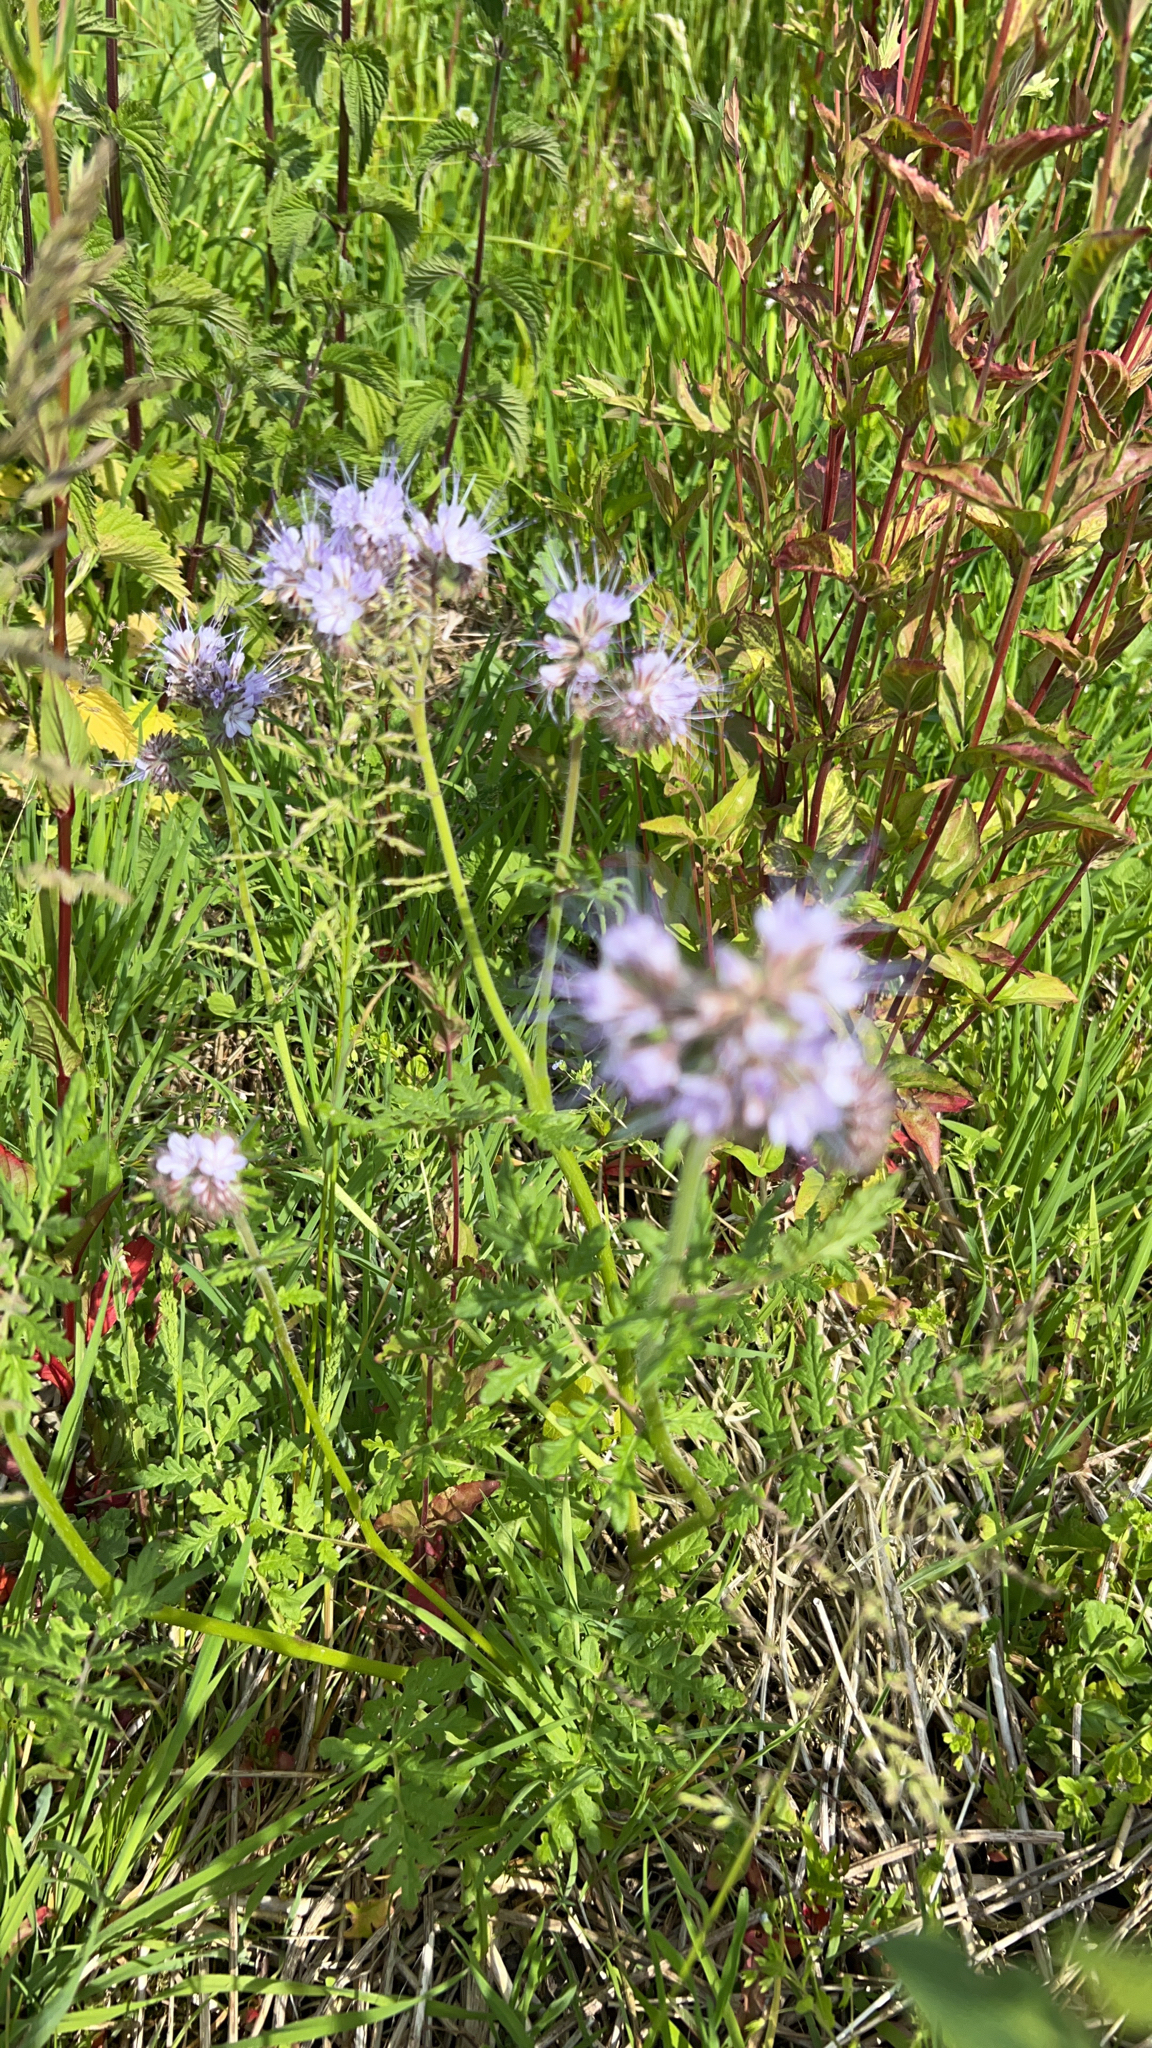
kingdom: Plantae
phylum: Tracheophyta
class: Magnoliopsida
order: Boraginales
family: Hydrophyllaceae
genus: Phacelia
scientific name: Phacelia tanacetifolia
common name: Phacelia
